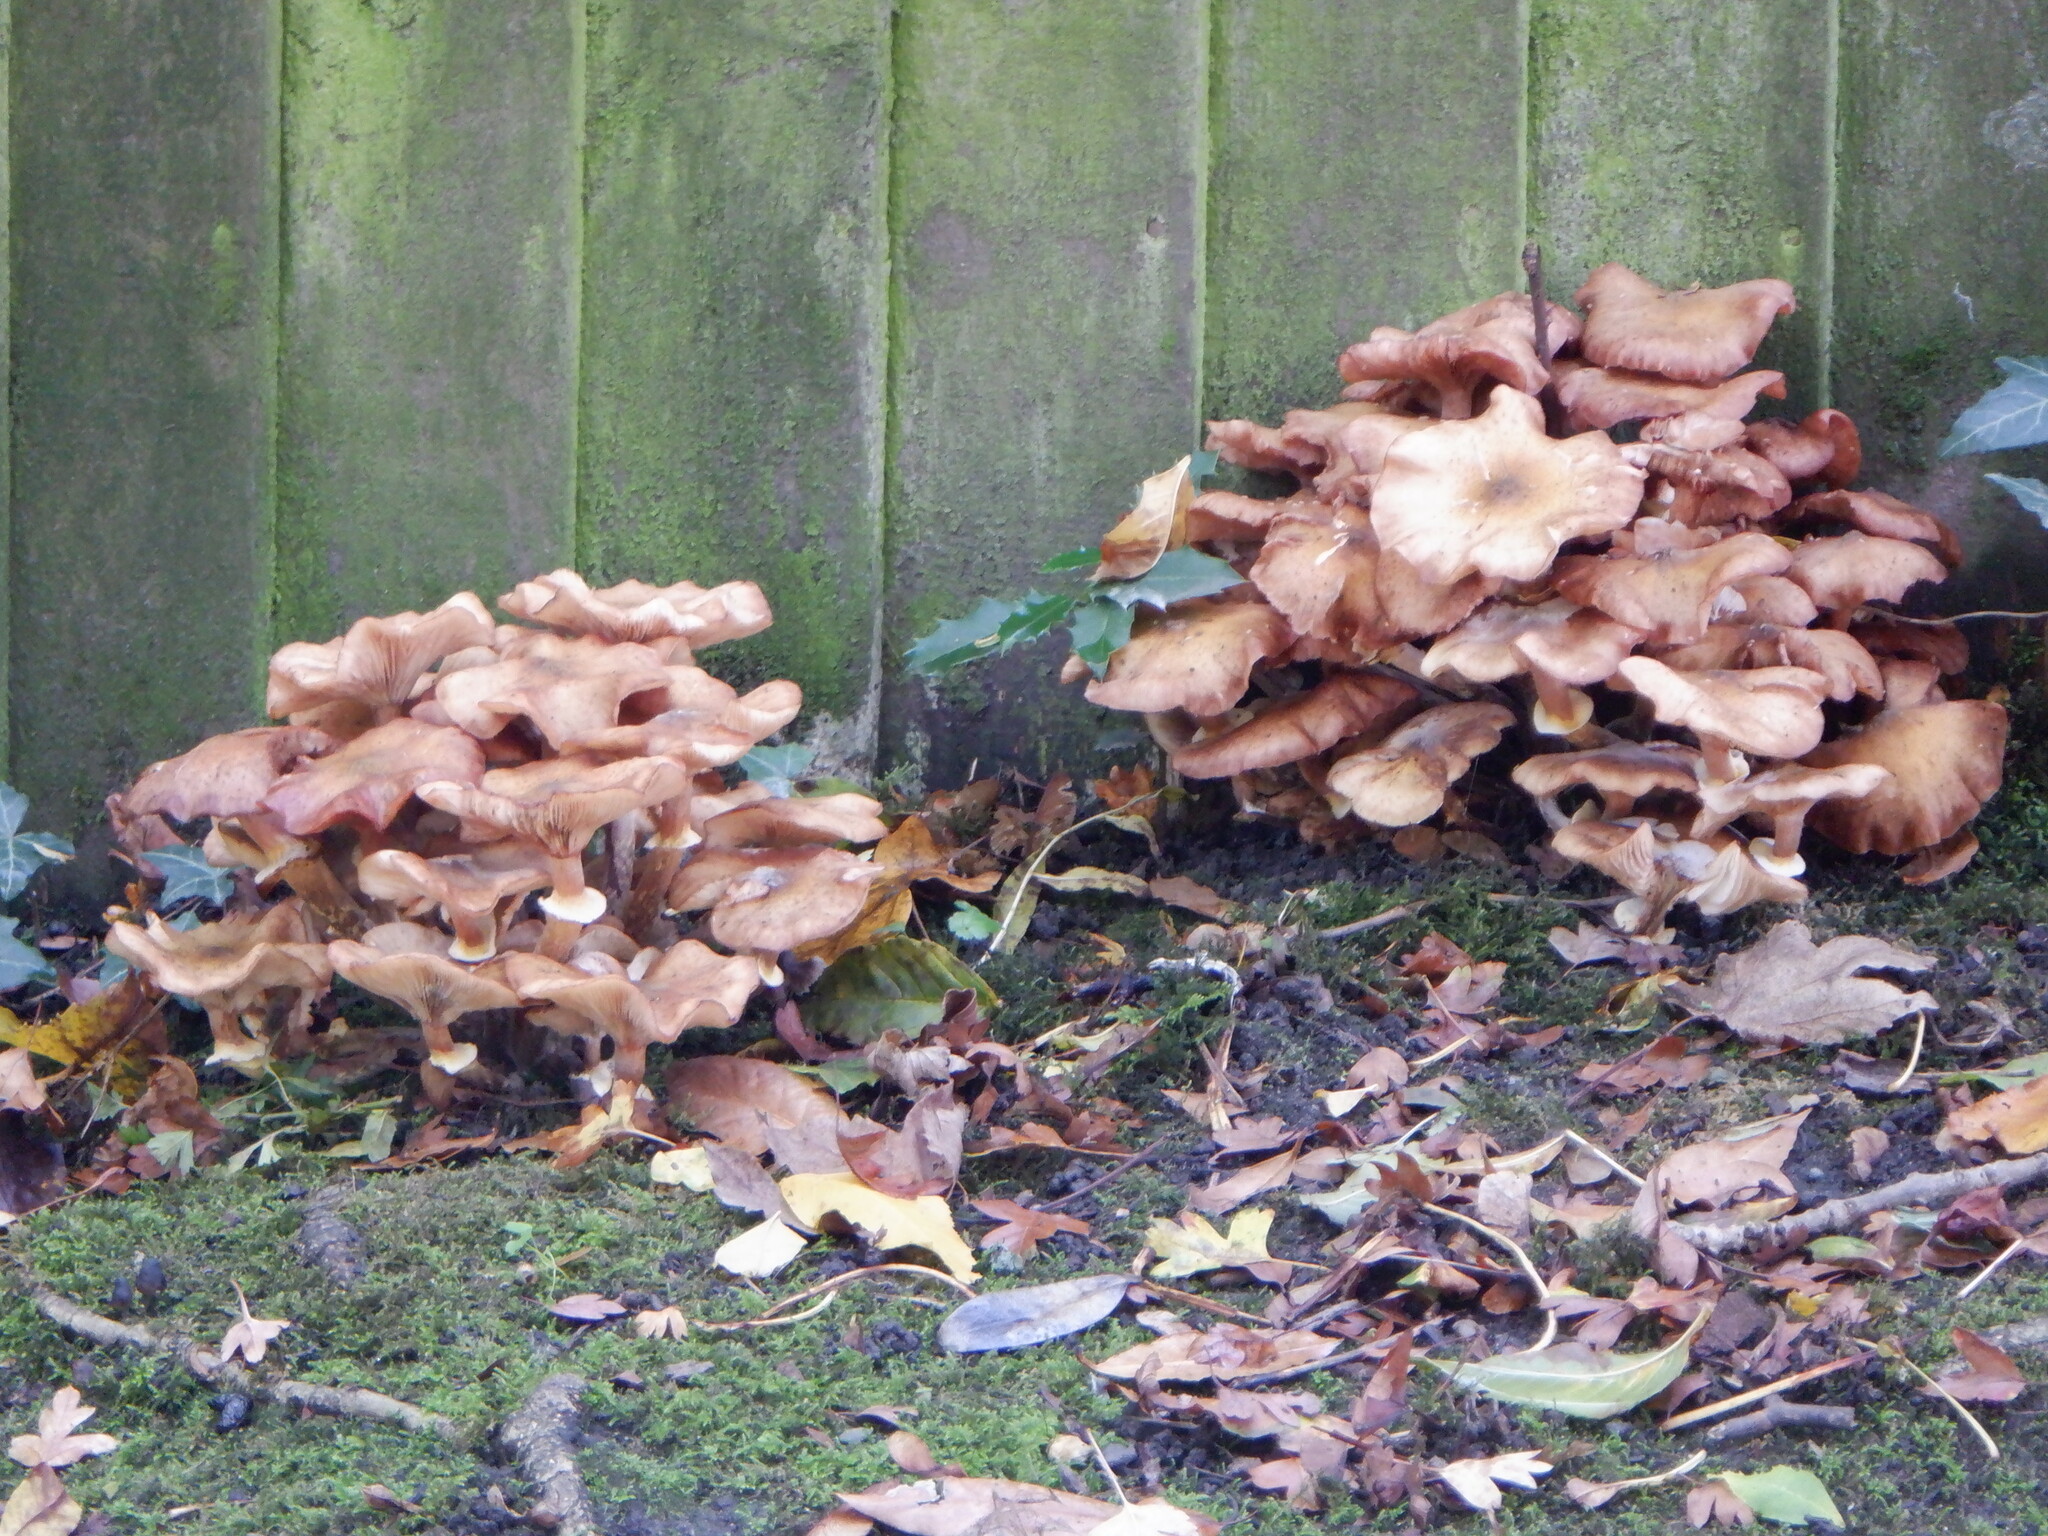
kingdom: Fungi
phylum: Basidiomycota
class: Agaricomycetes
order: Agaricales
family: Physalacriaceae
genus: Armillaria
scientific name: Armillaria mellea
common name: Honey fungus
